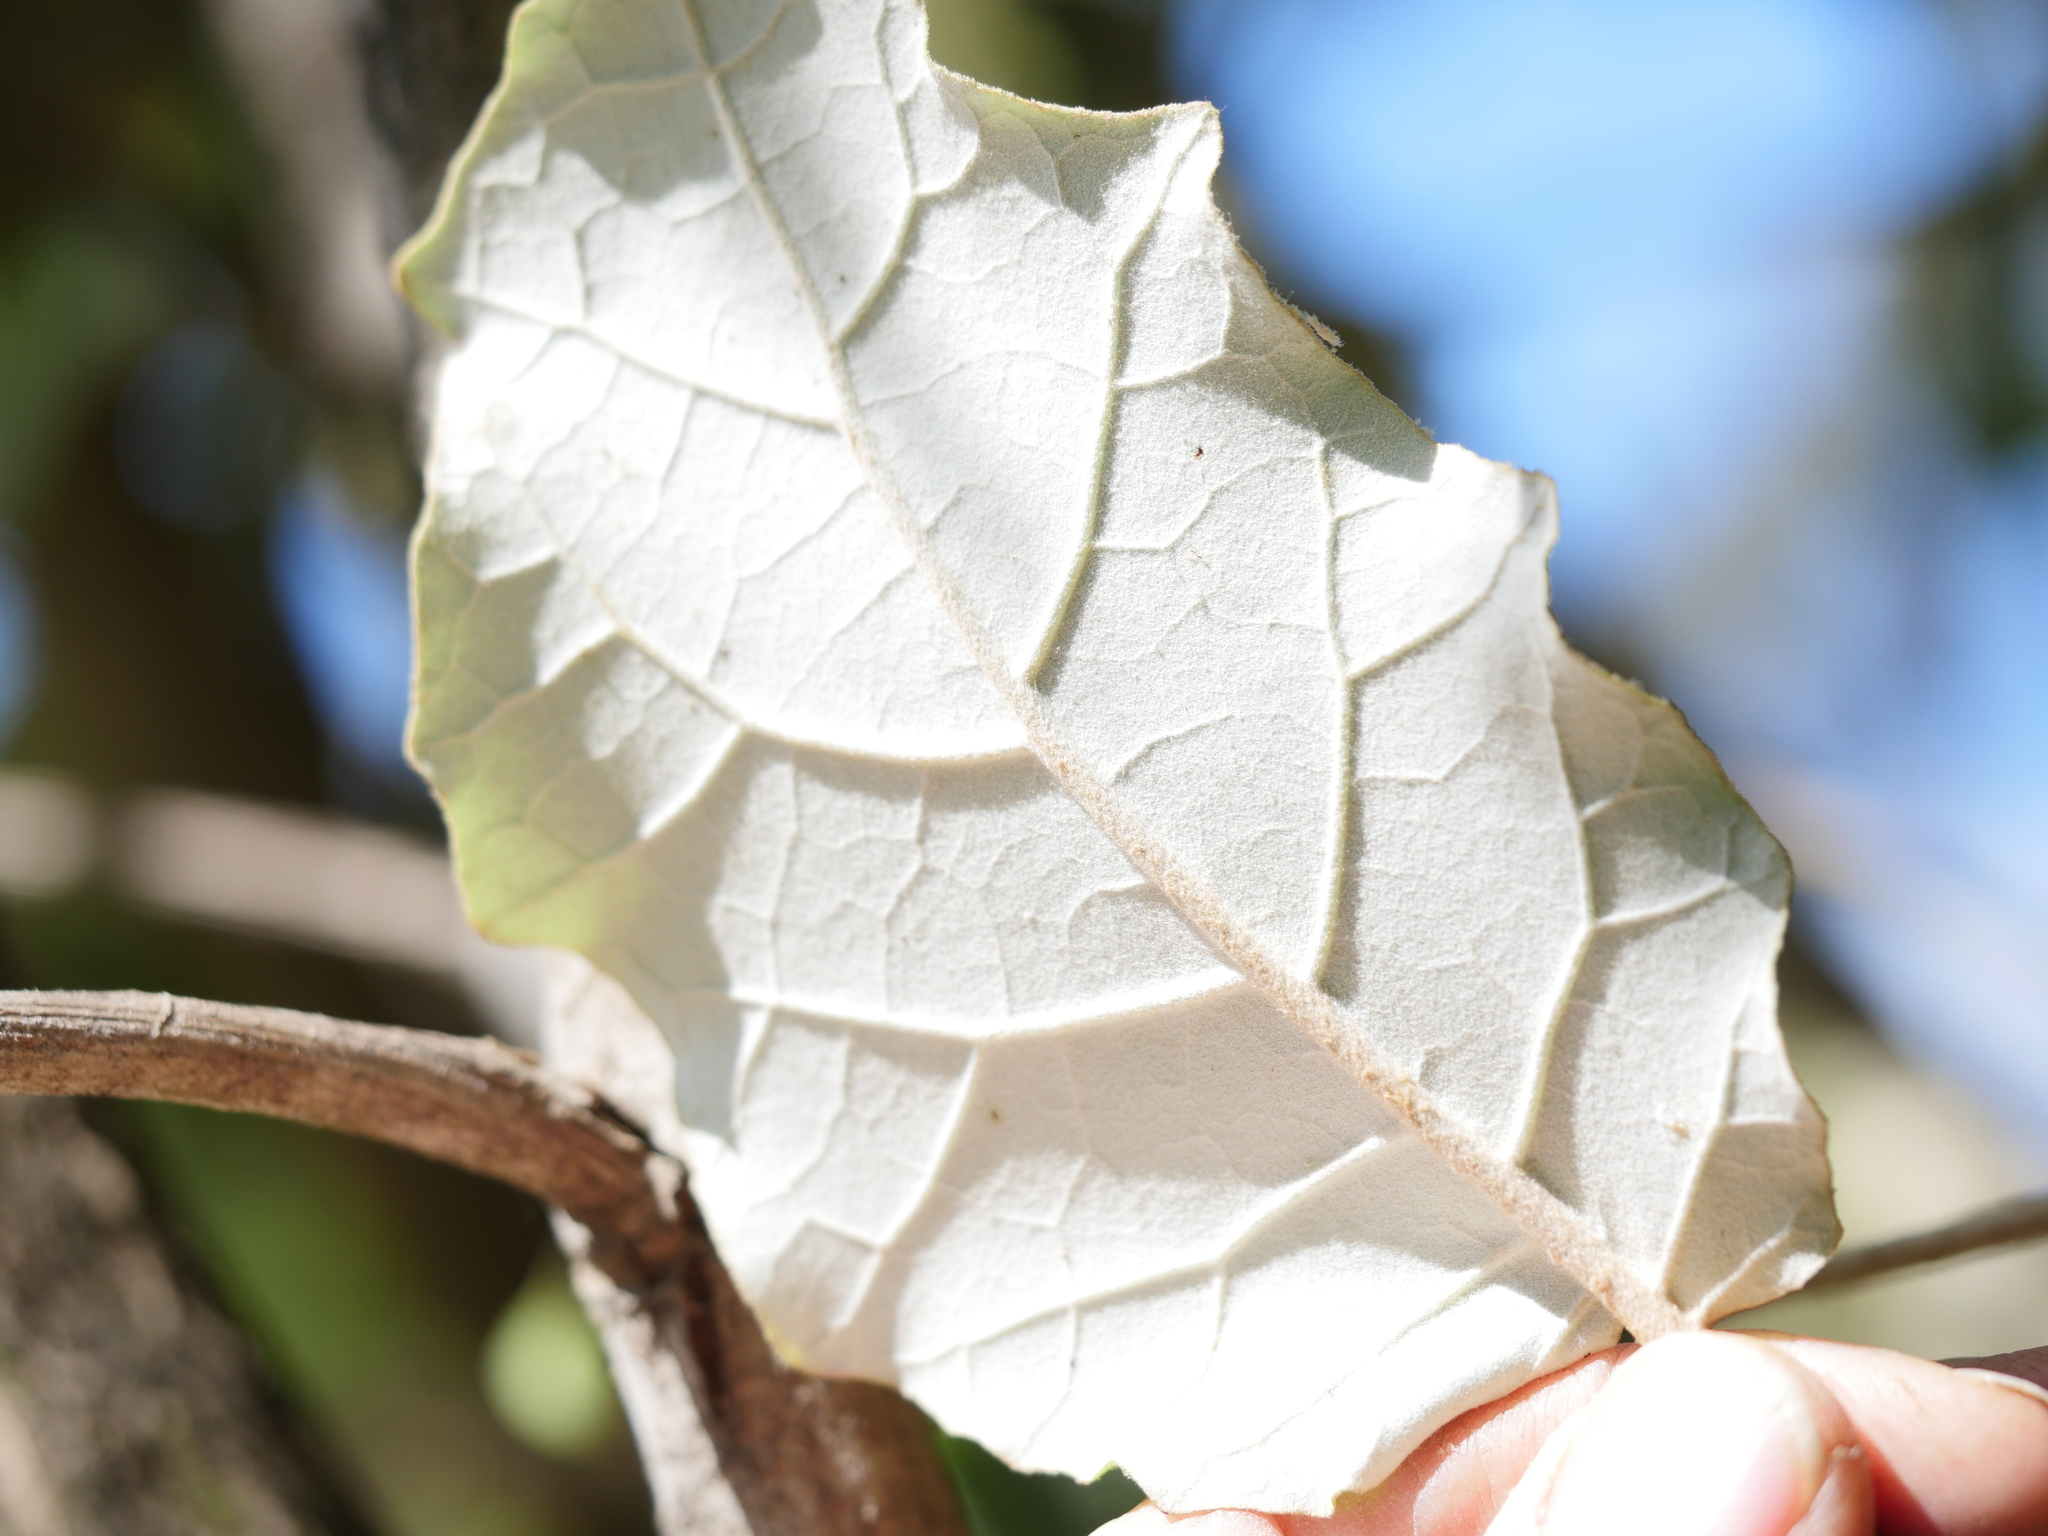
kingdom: Plantae
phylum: Tracheophyta
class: Magnoliopsida
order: Asterales
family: Asteraceae
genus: Brachyglottis
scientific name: Brachyglottis repanda
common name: Hedge ragwort
